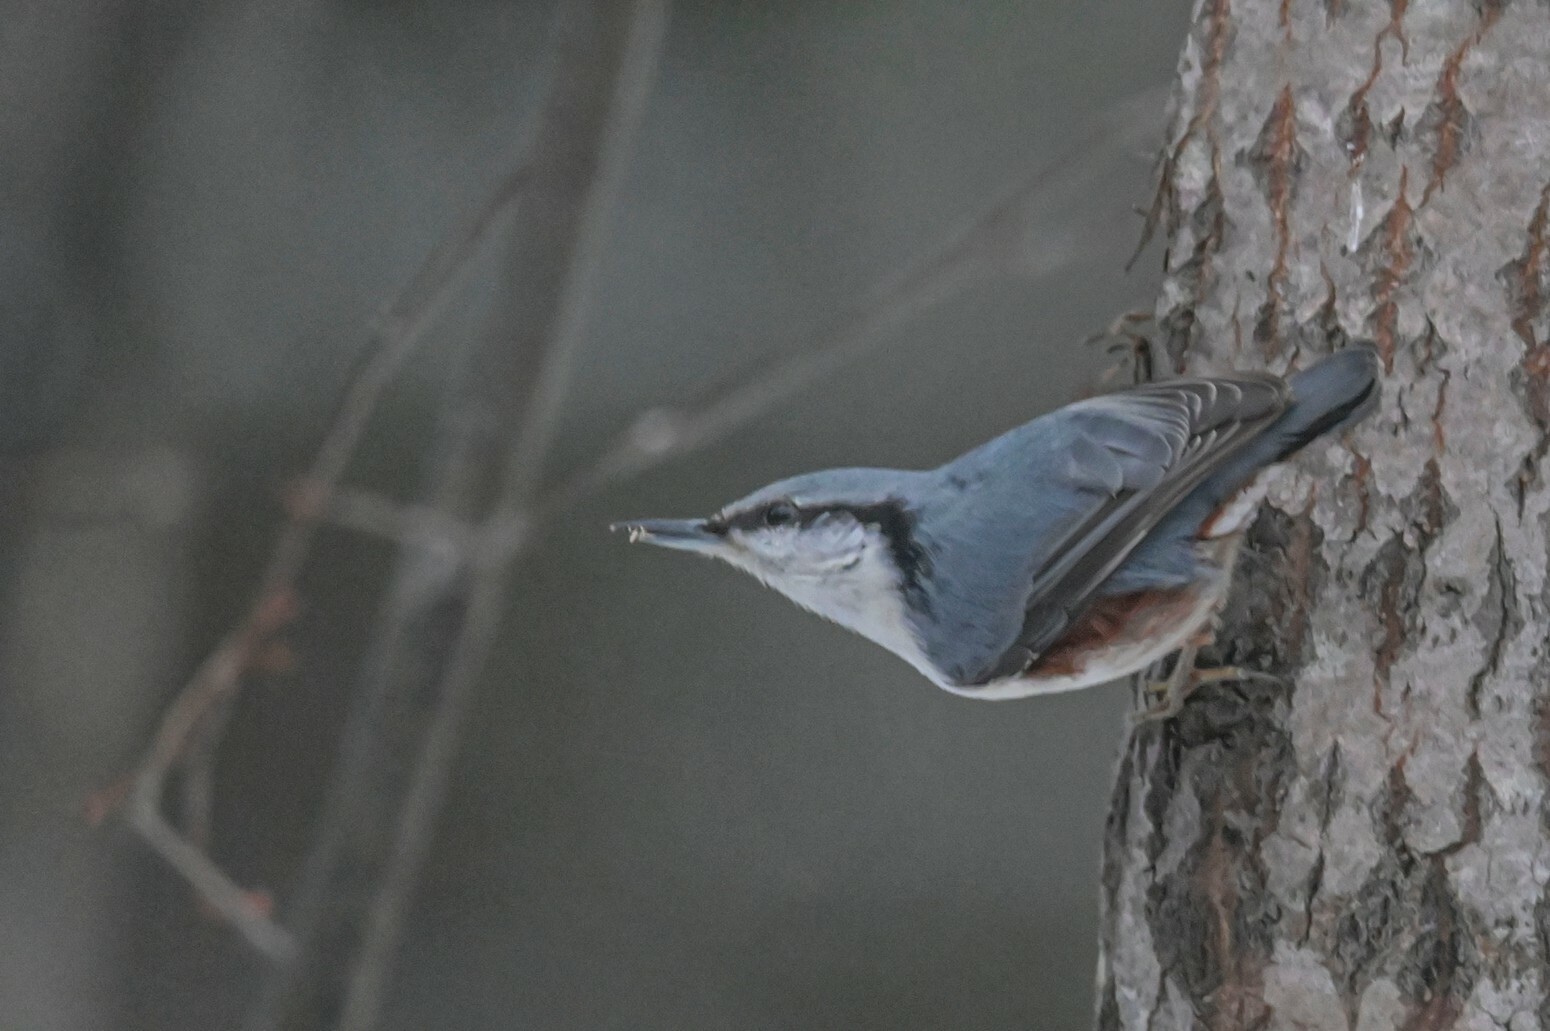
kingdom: Animalia
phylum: Chordata
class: Aves
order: Passeriformes
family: Sittidae
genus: Sitta
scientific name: Sitta europaea
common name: Eurasian nuthatch
